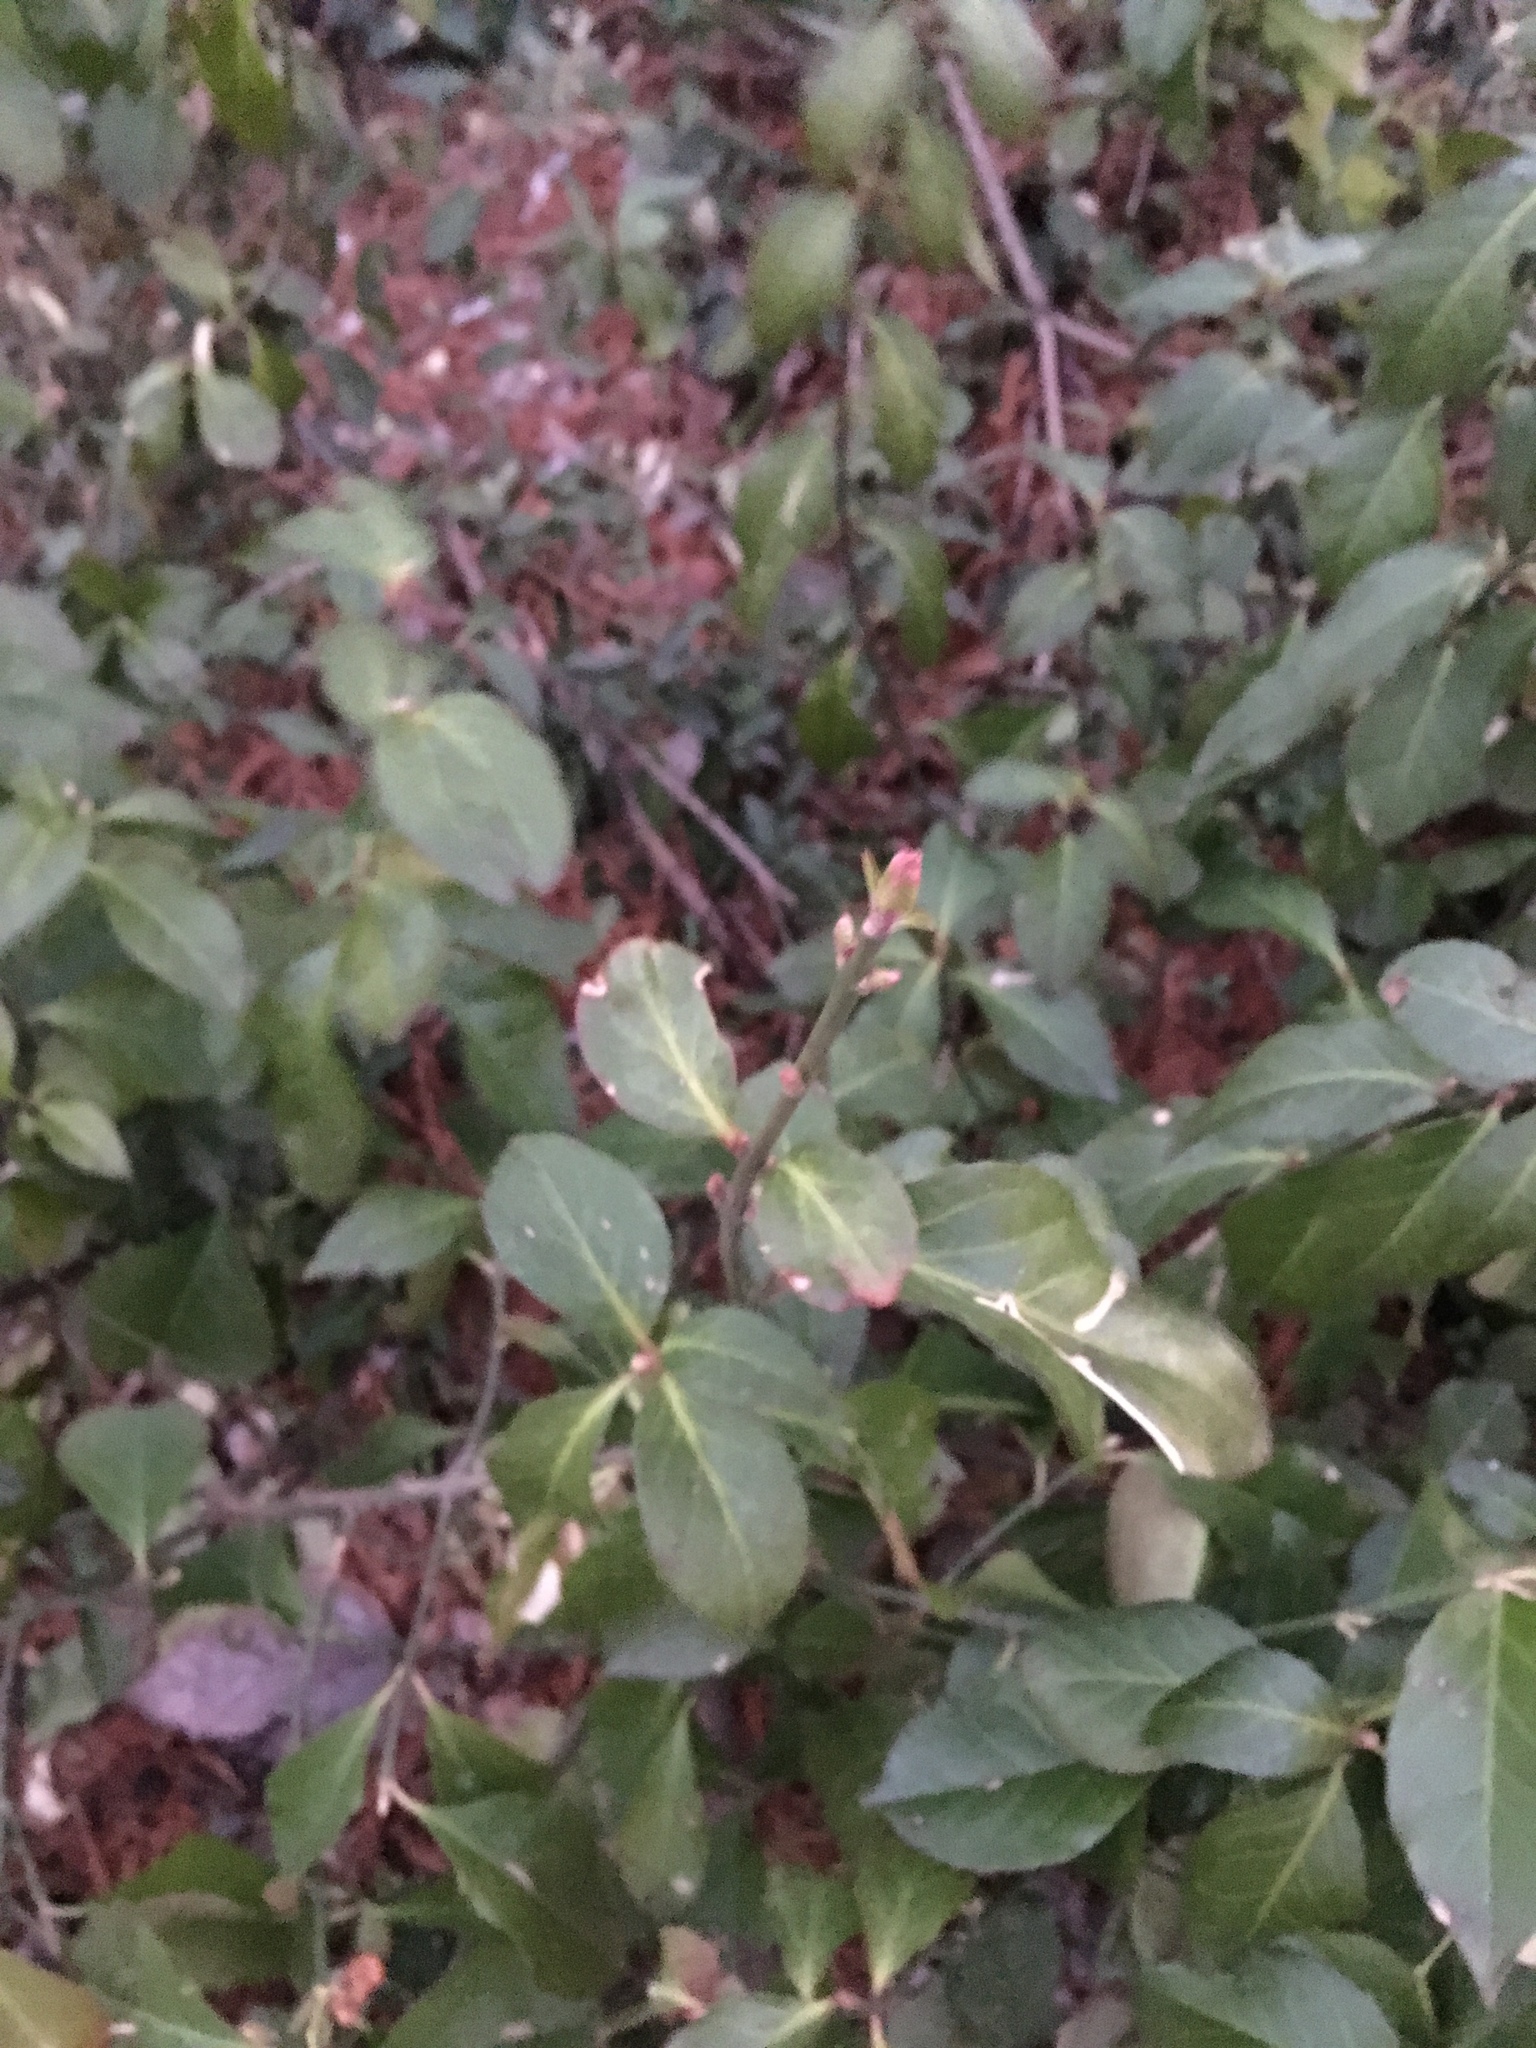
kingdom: Plantae
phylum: Tracheophyta
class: Magnoliopsida
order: Celastrales
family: Celastraceae
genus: Euonymus
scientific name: Euonymus fortunei
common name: Climbing euonymus
